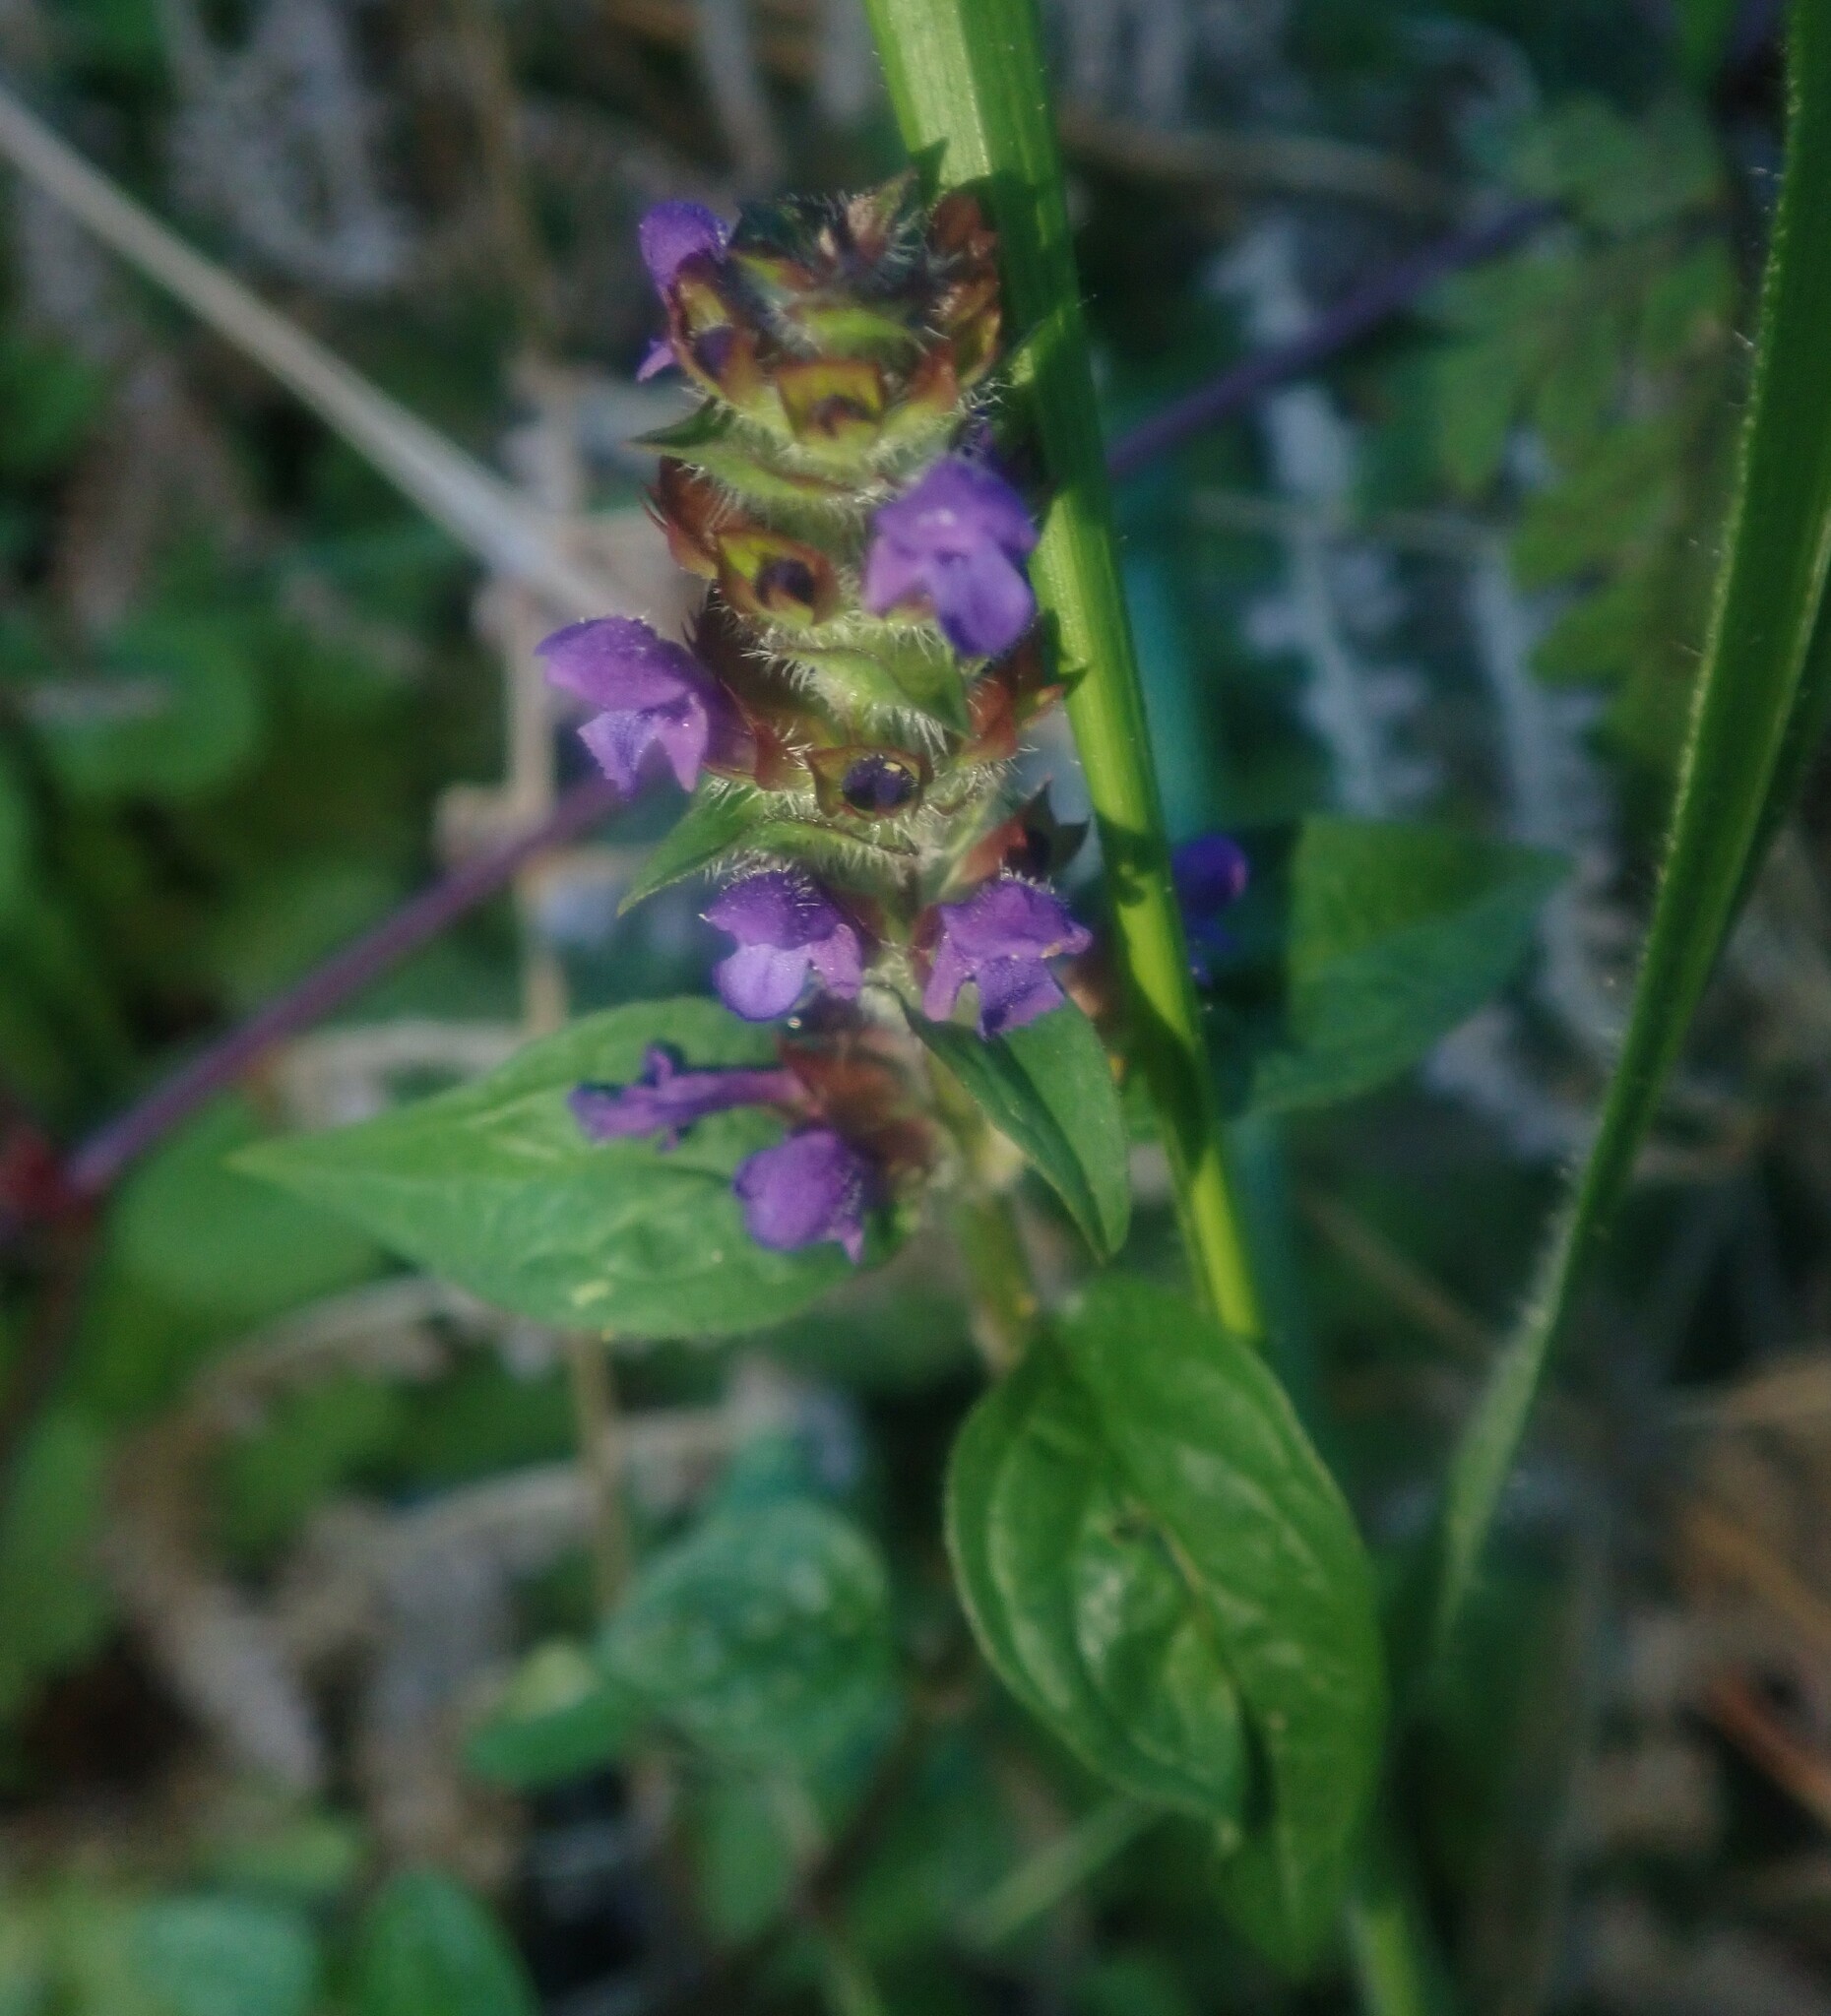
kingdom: Plantae
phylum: Tracheophyta
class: Magnoliopsida
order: Lamiales
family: Lamiaceae
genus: Prunella
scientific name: Prunella vulgaris
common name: Heal-all
